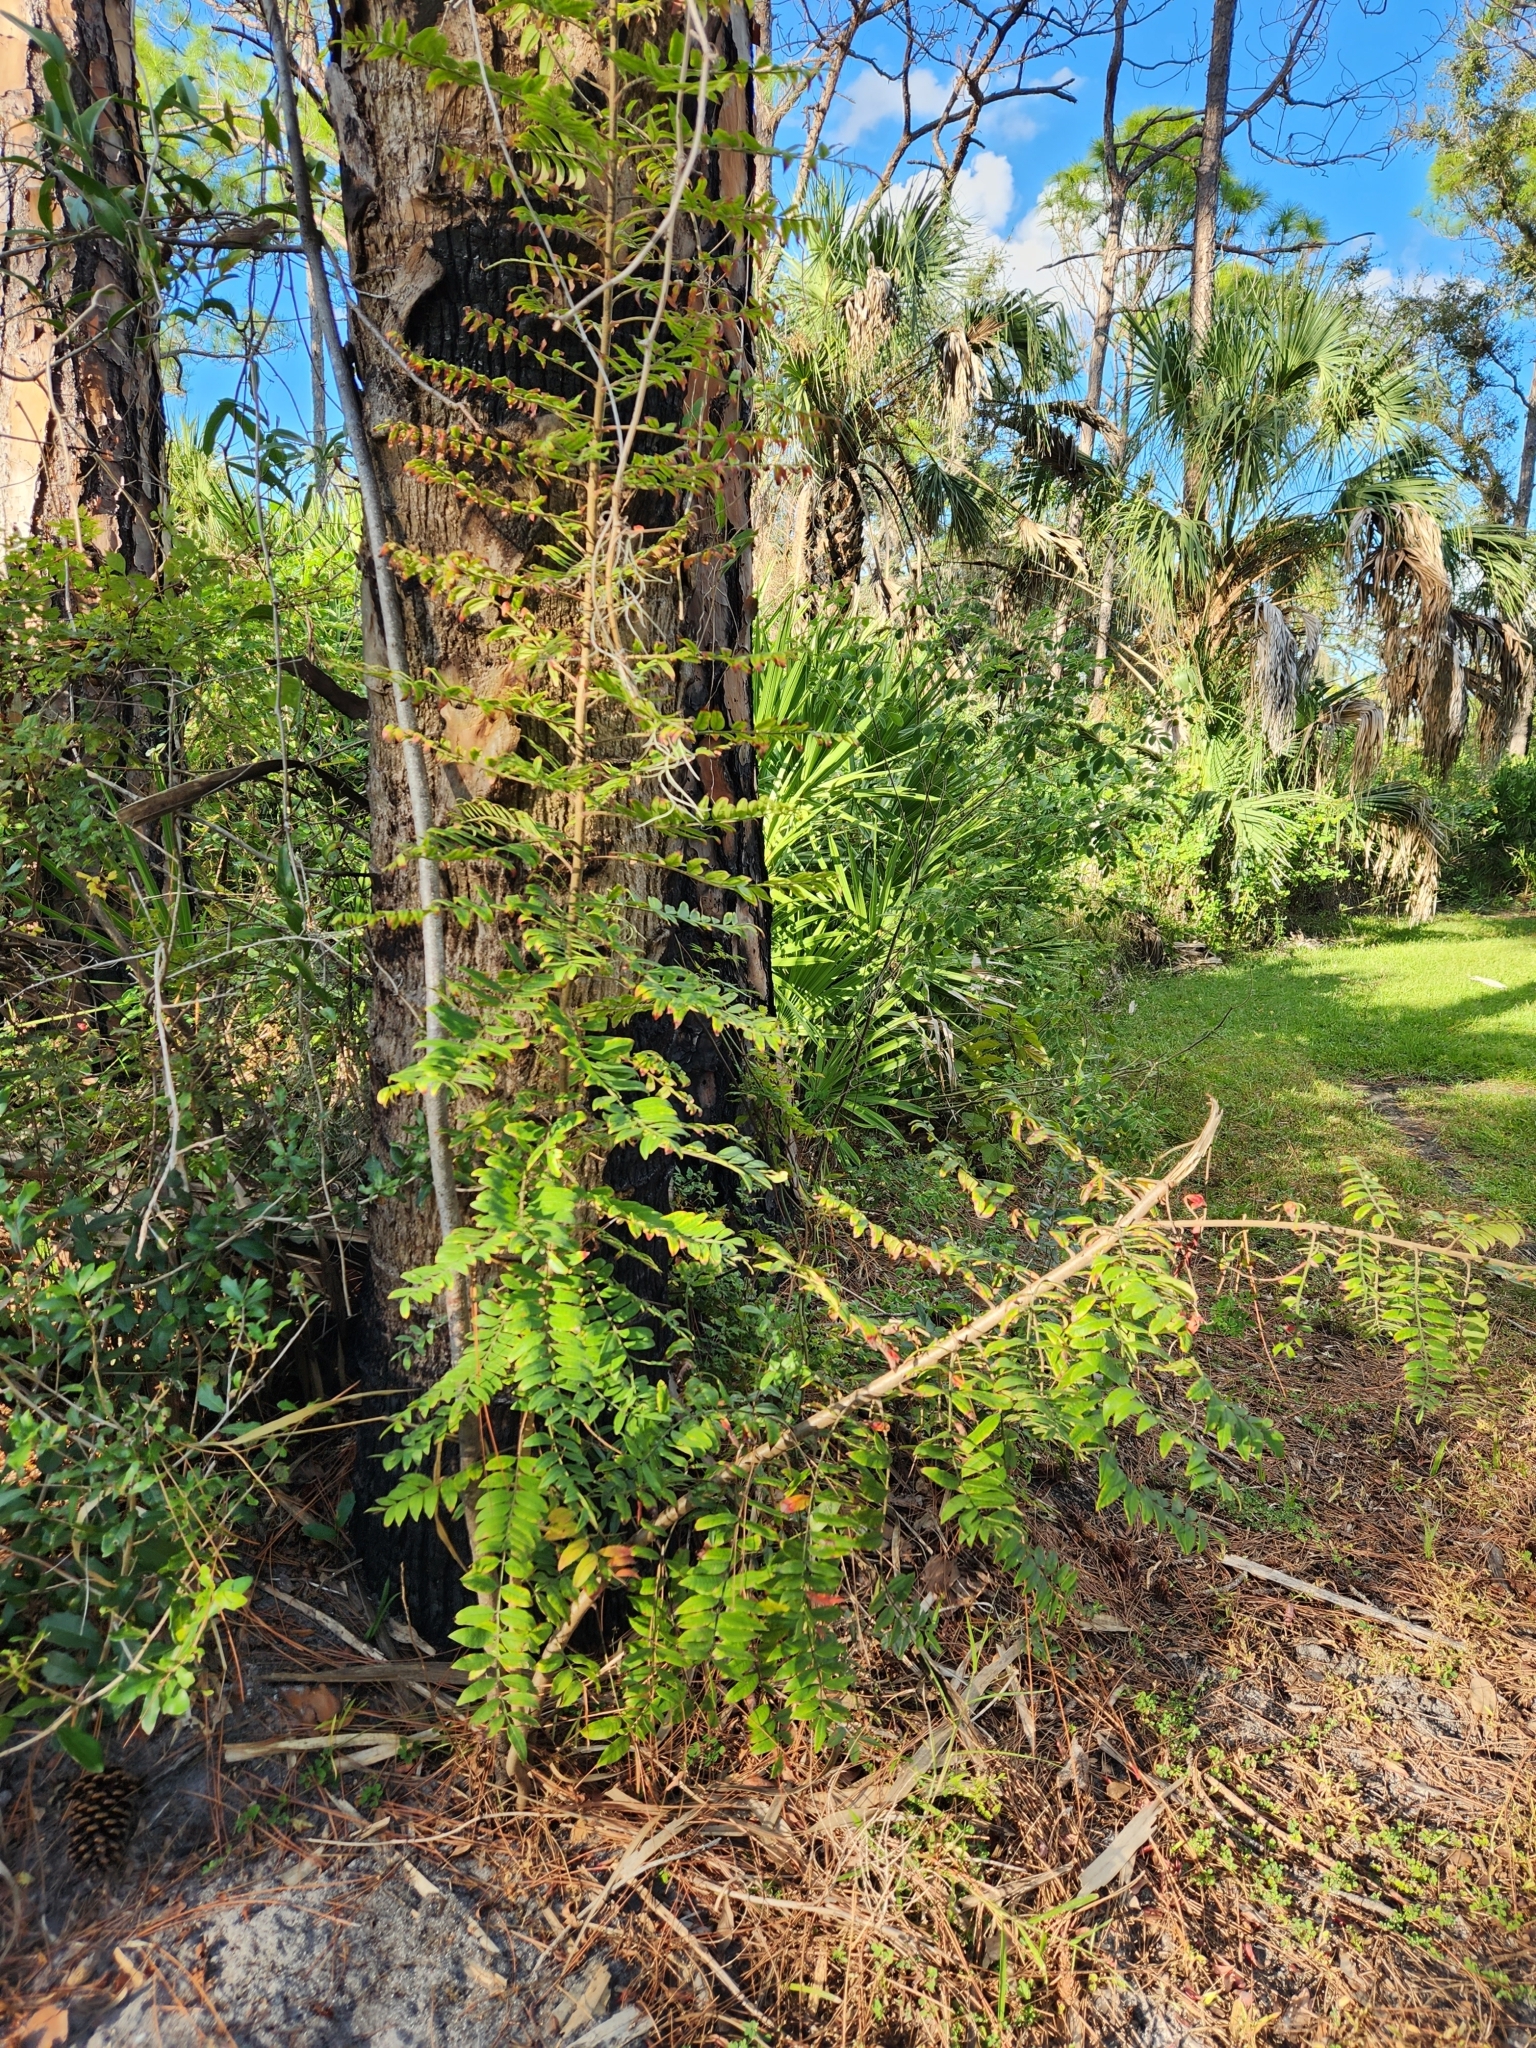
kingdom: Plantae
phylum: Tracheophyta
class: Magnoliopsida
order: Sapindales
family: Anacardiaceae
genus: Rhus
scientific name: Rhus copallina
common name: Shining sumac
